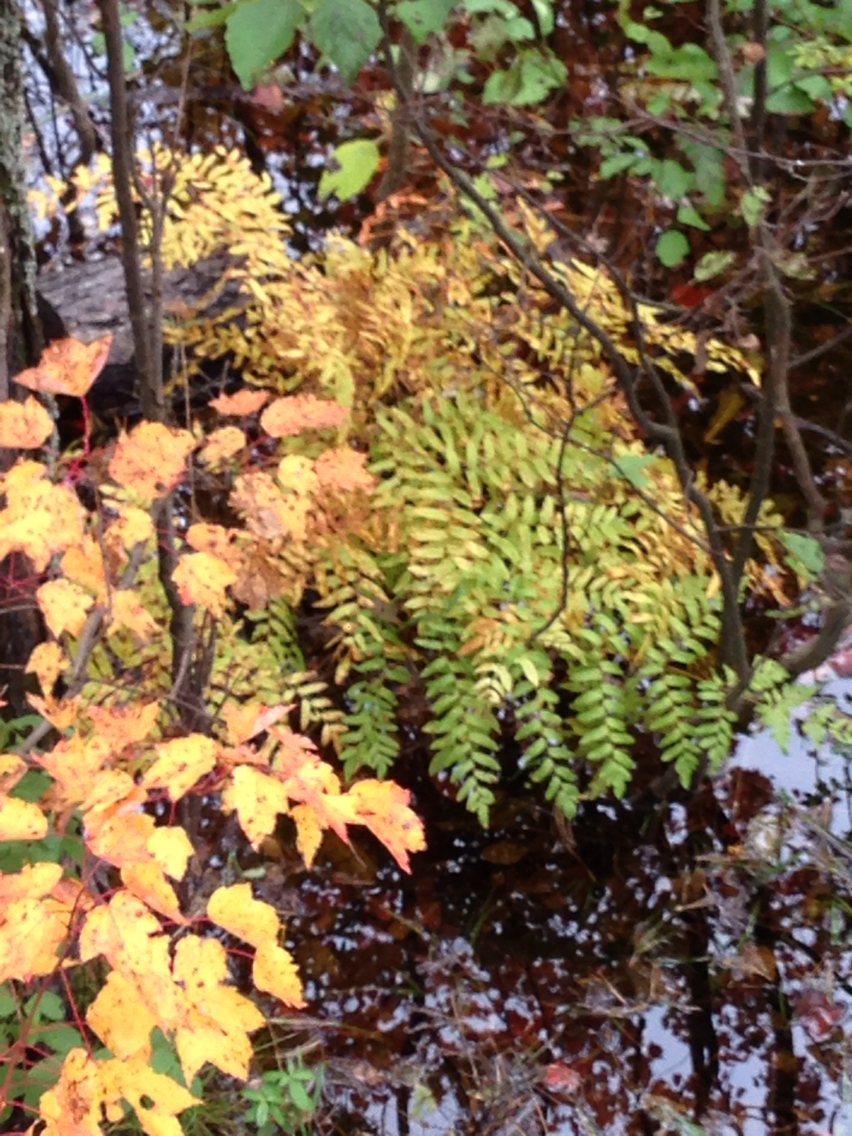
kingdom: Plantae
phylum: Tracheophyta
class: Polypodiopsida
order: Osmundales
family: Osmundaceae
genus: Osmunda
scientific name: Osmunda spectabilis
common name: American royal fern
